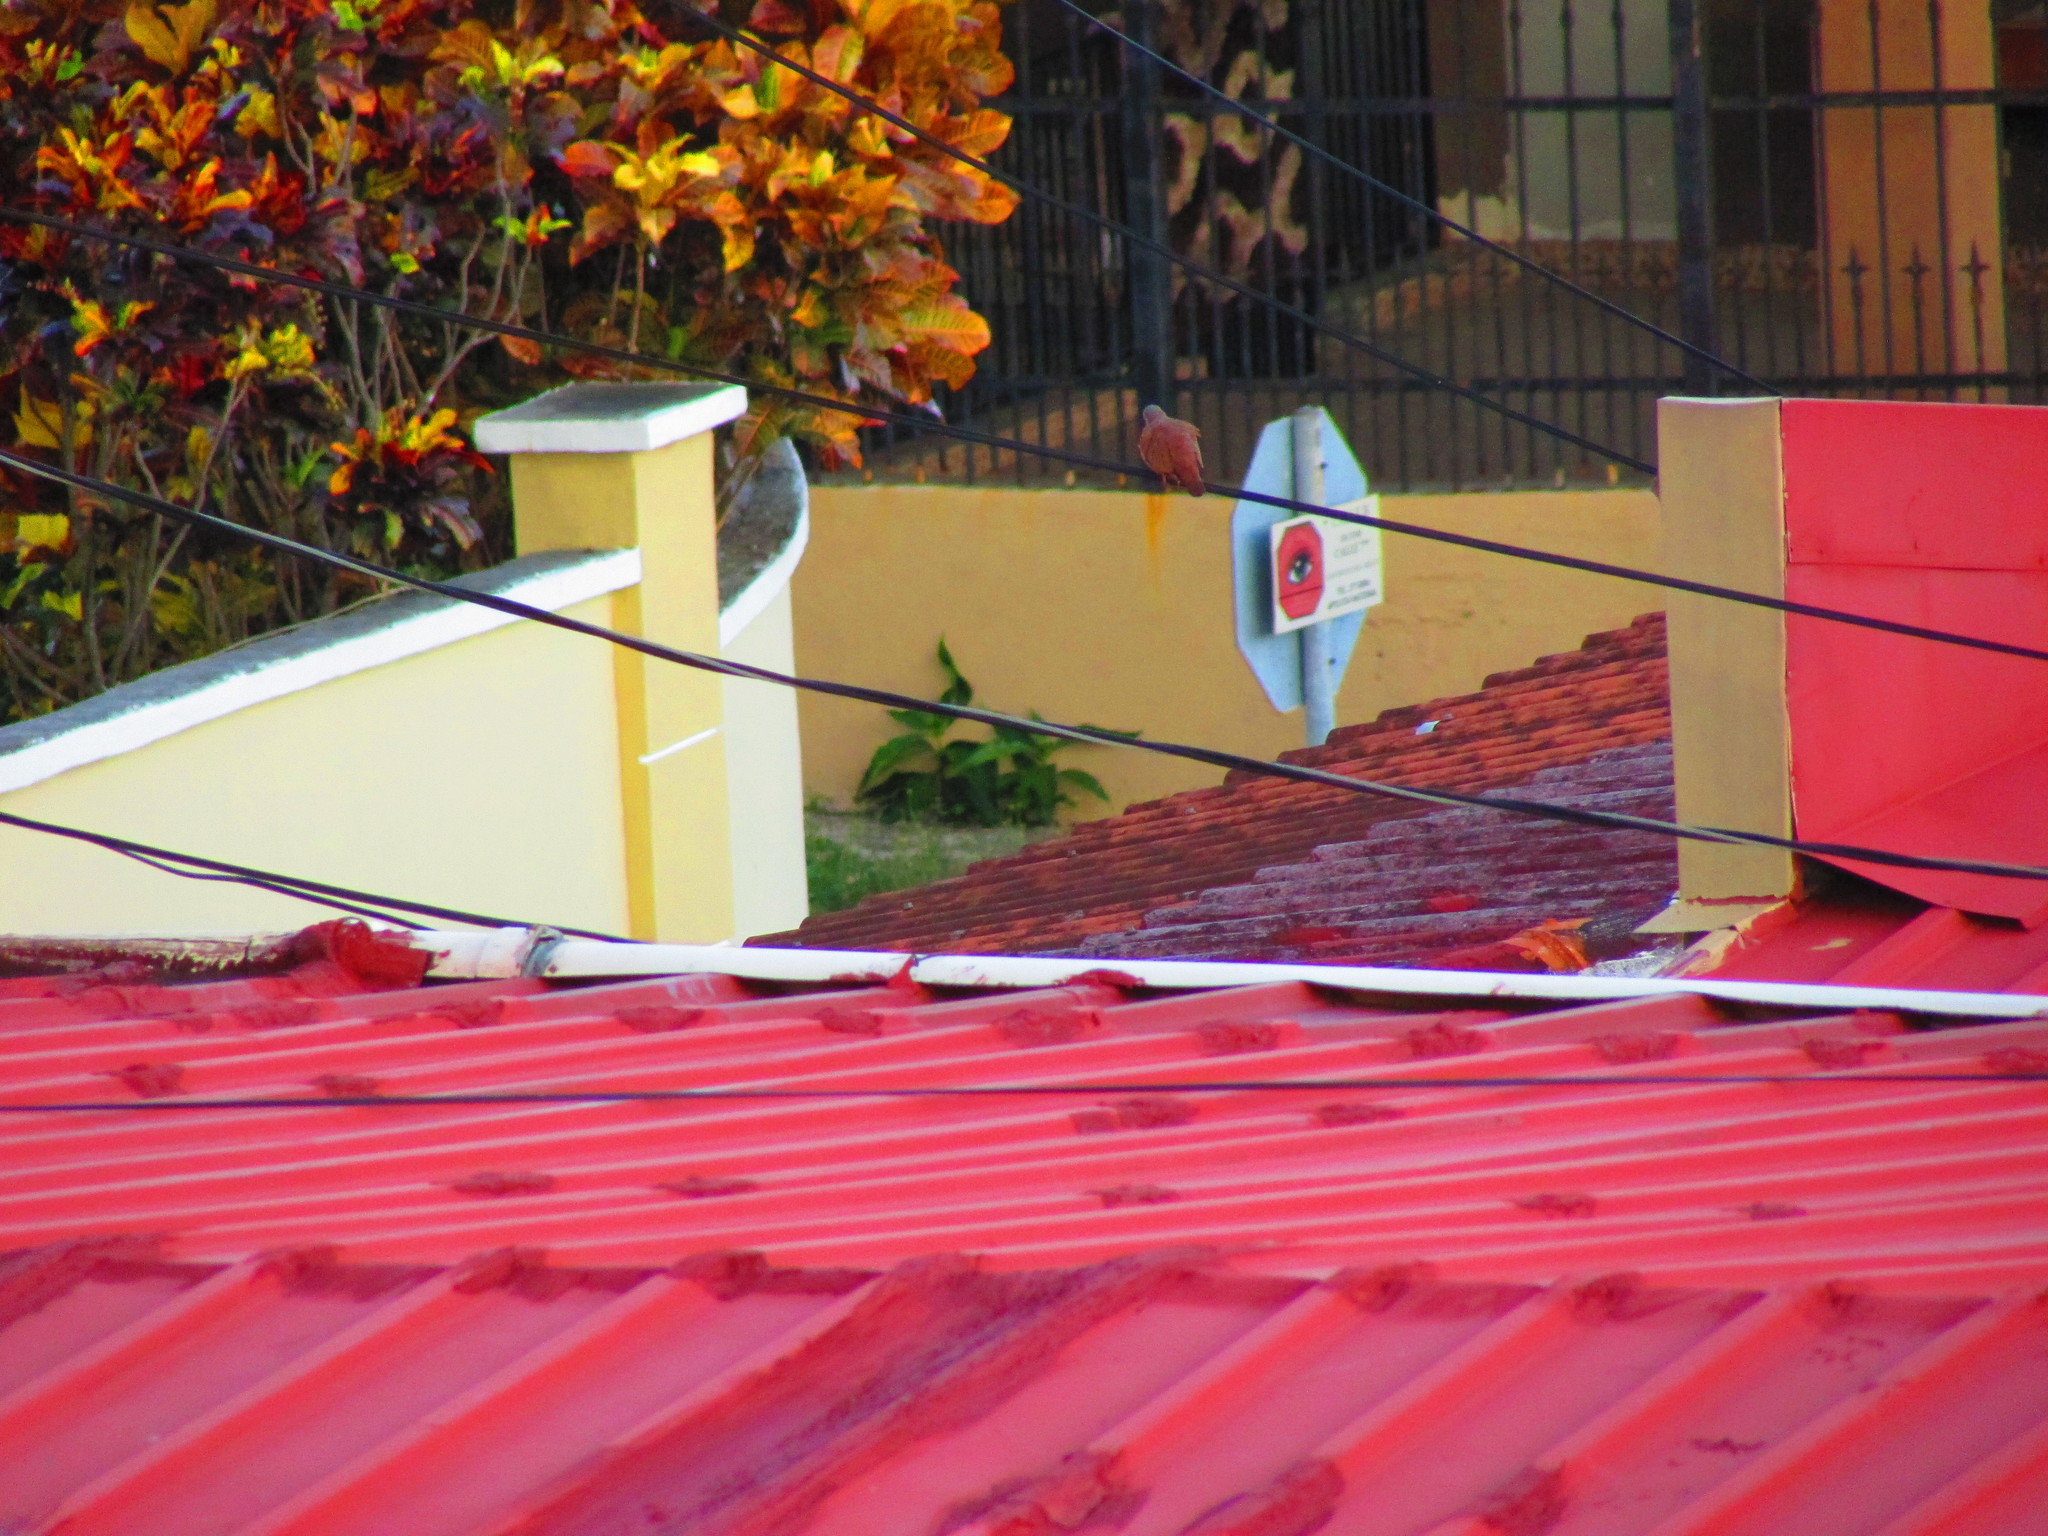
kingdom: Animalia
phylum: Chordata
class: Aves
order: Columbiformes
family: Columbidae
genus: Columbina
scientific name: Columbina talpacoti
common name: Ruddy ground dove
